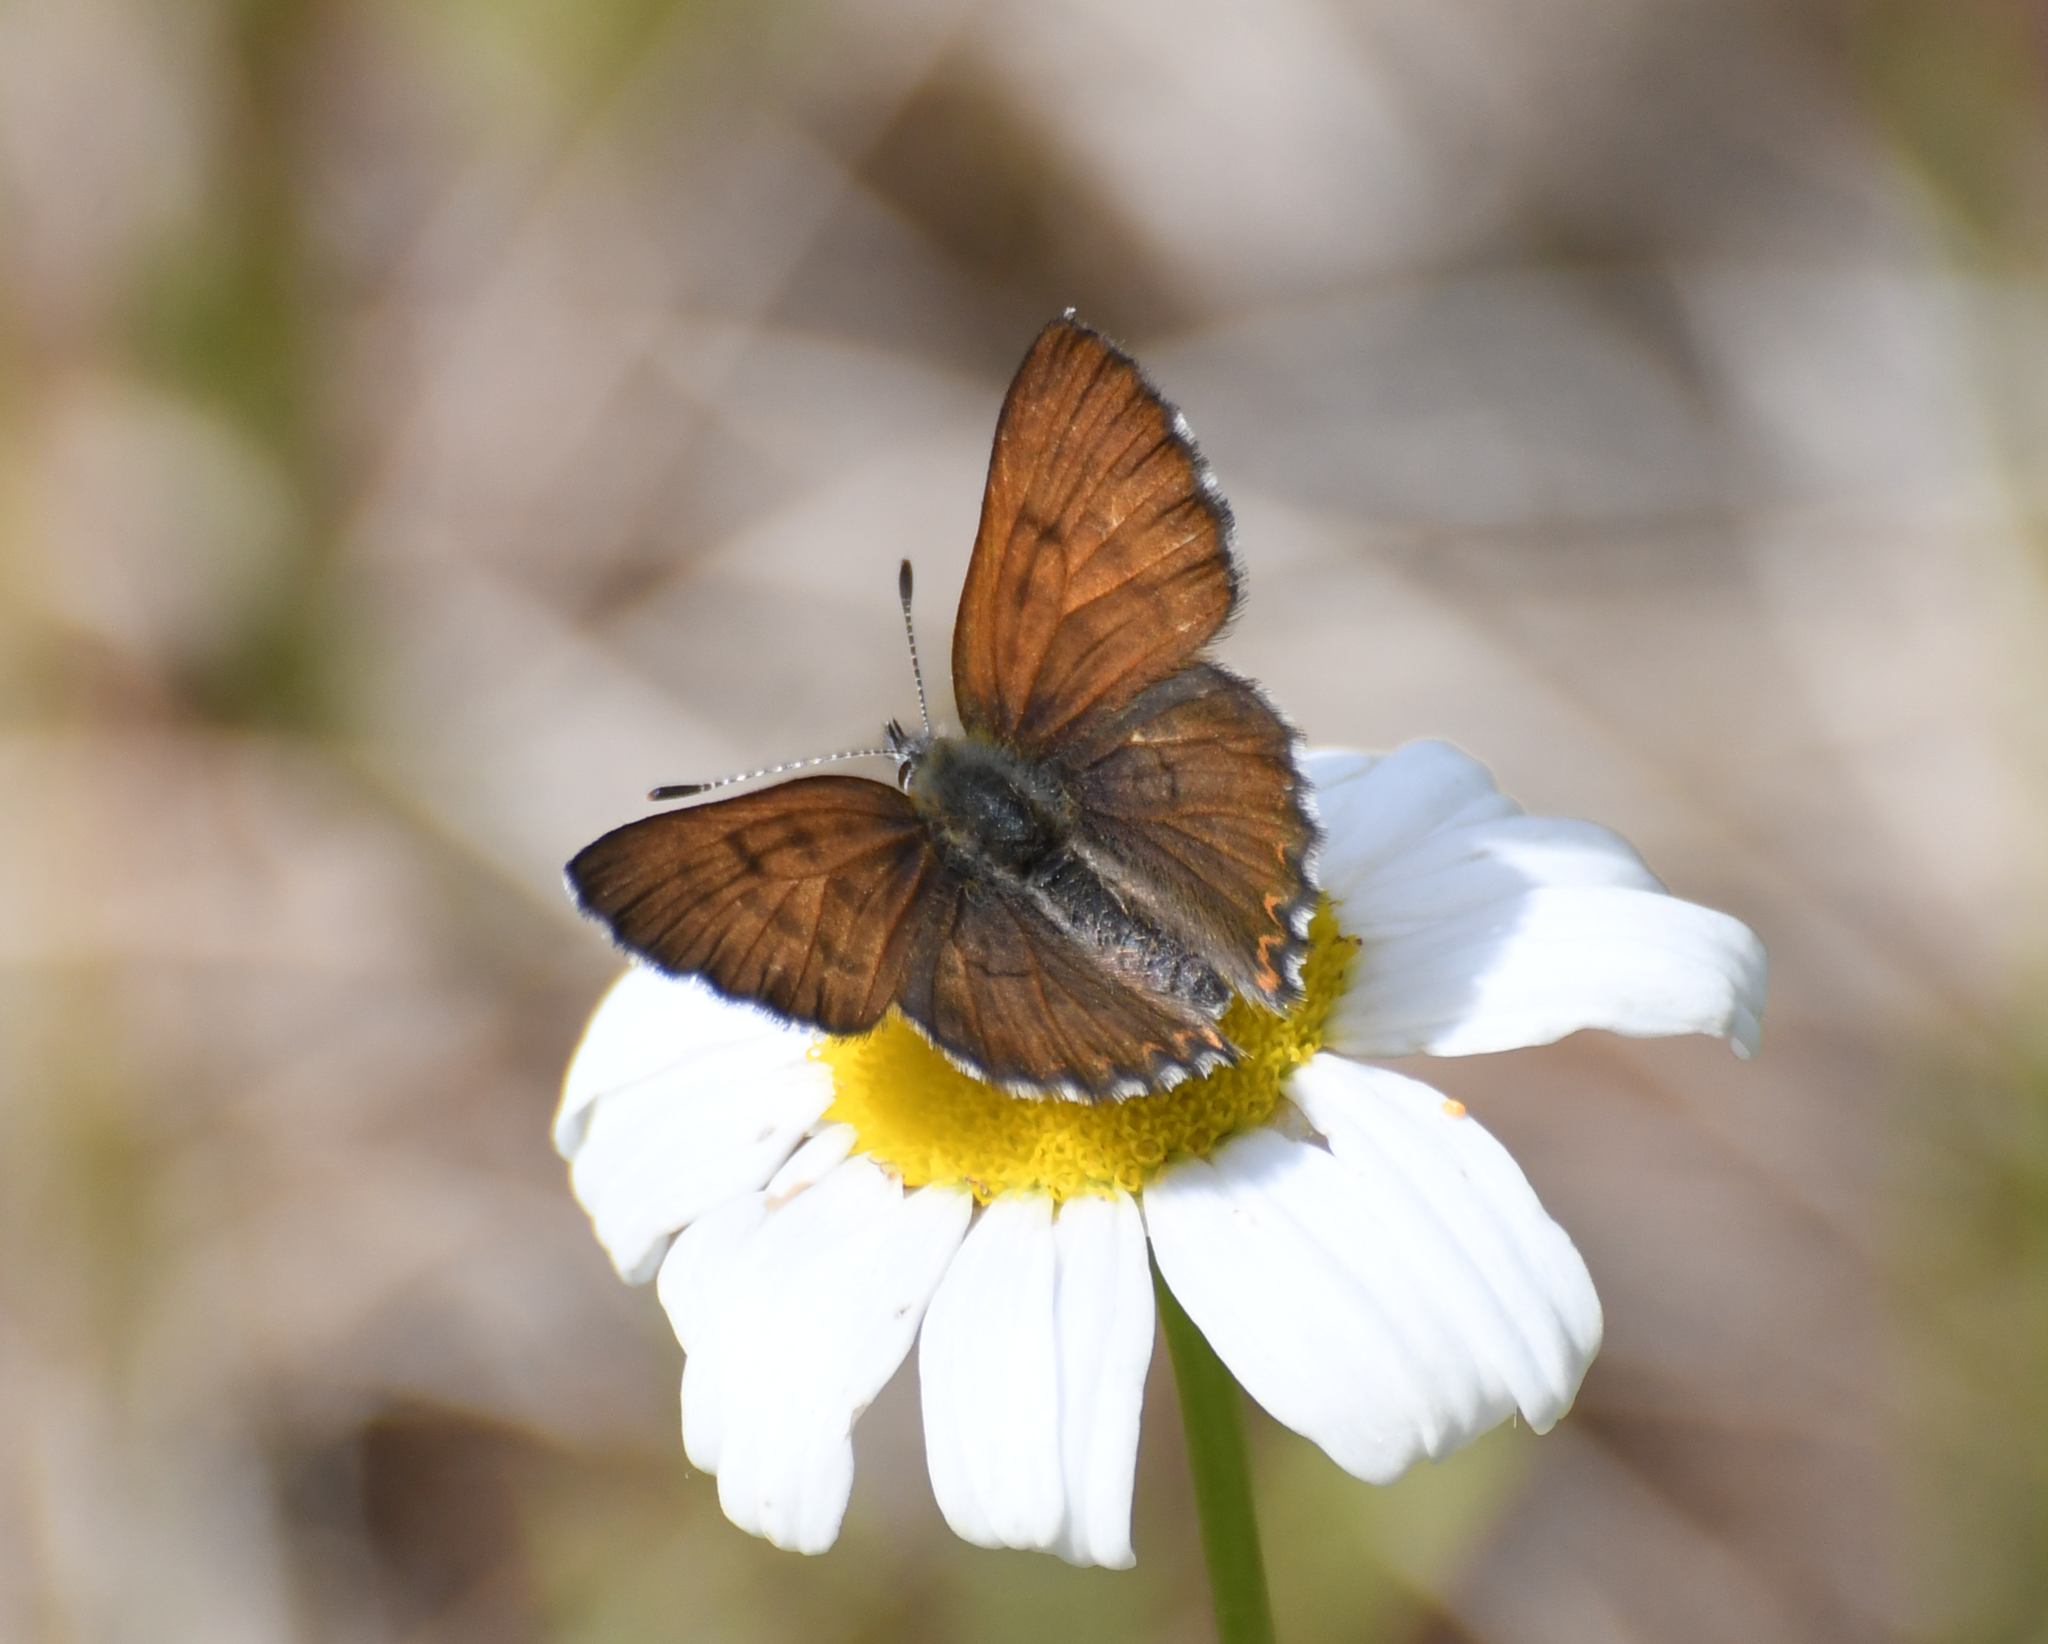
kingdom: Animalia
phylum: Arthropoda
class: Insecta
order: Lepidoptera
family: Lycaenidae
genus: Tharsalea
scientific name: Tharsalea mariposa
